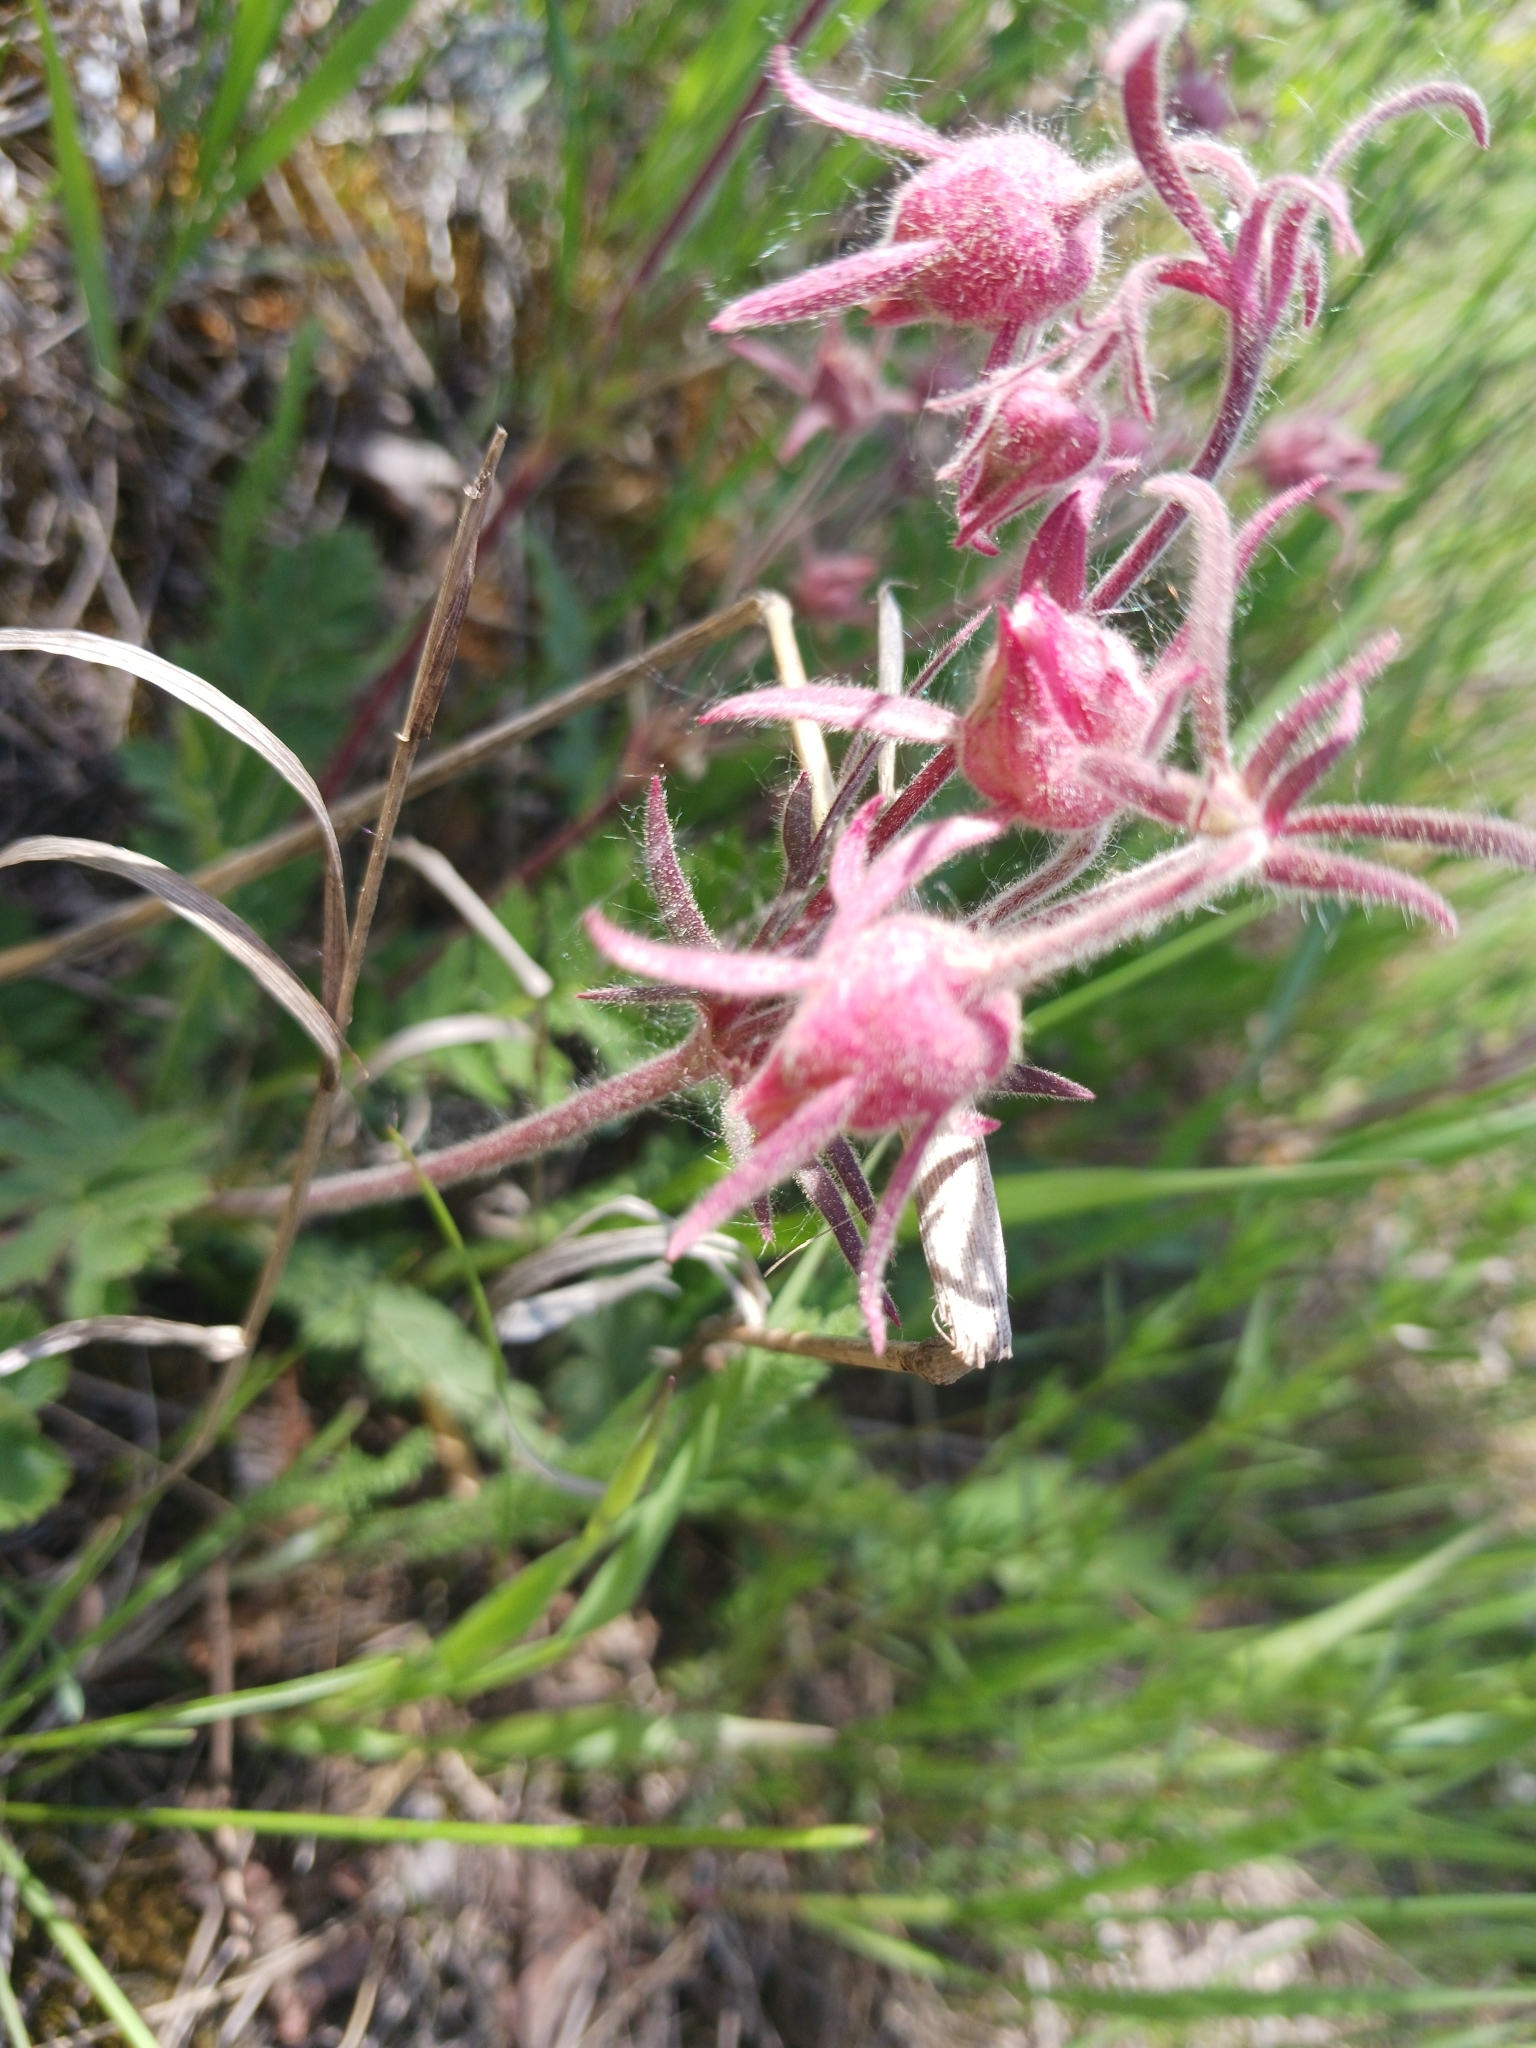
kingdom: Plantae
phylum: Tracheophyta
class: Magnoliopsida
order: Rosales
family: Rosaceae
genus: Geum
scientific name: Geum triflorum
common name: Old man's whiskers
